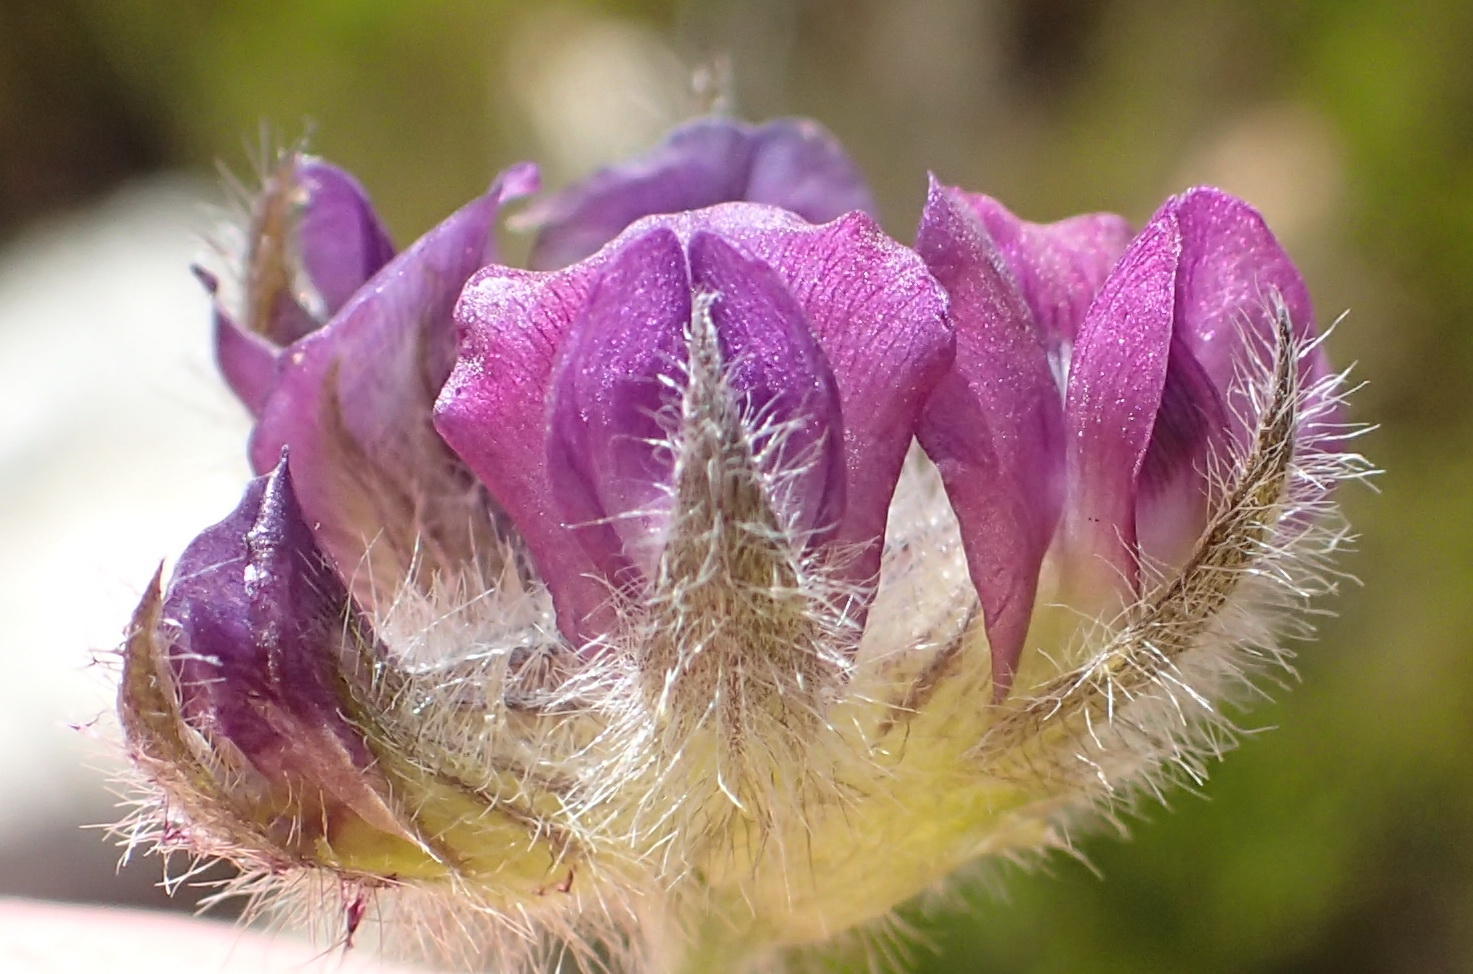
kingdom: Plantae
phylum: Tracheophyta
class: Magnoliopsida
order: Fabales
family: Fabaceae
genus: Psoralea
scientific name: Psoralea swartbergensis
